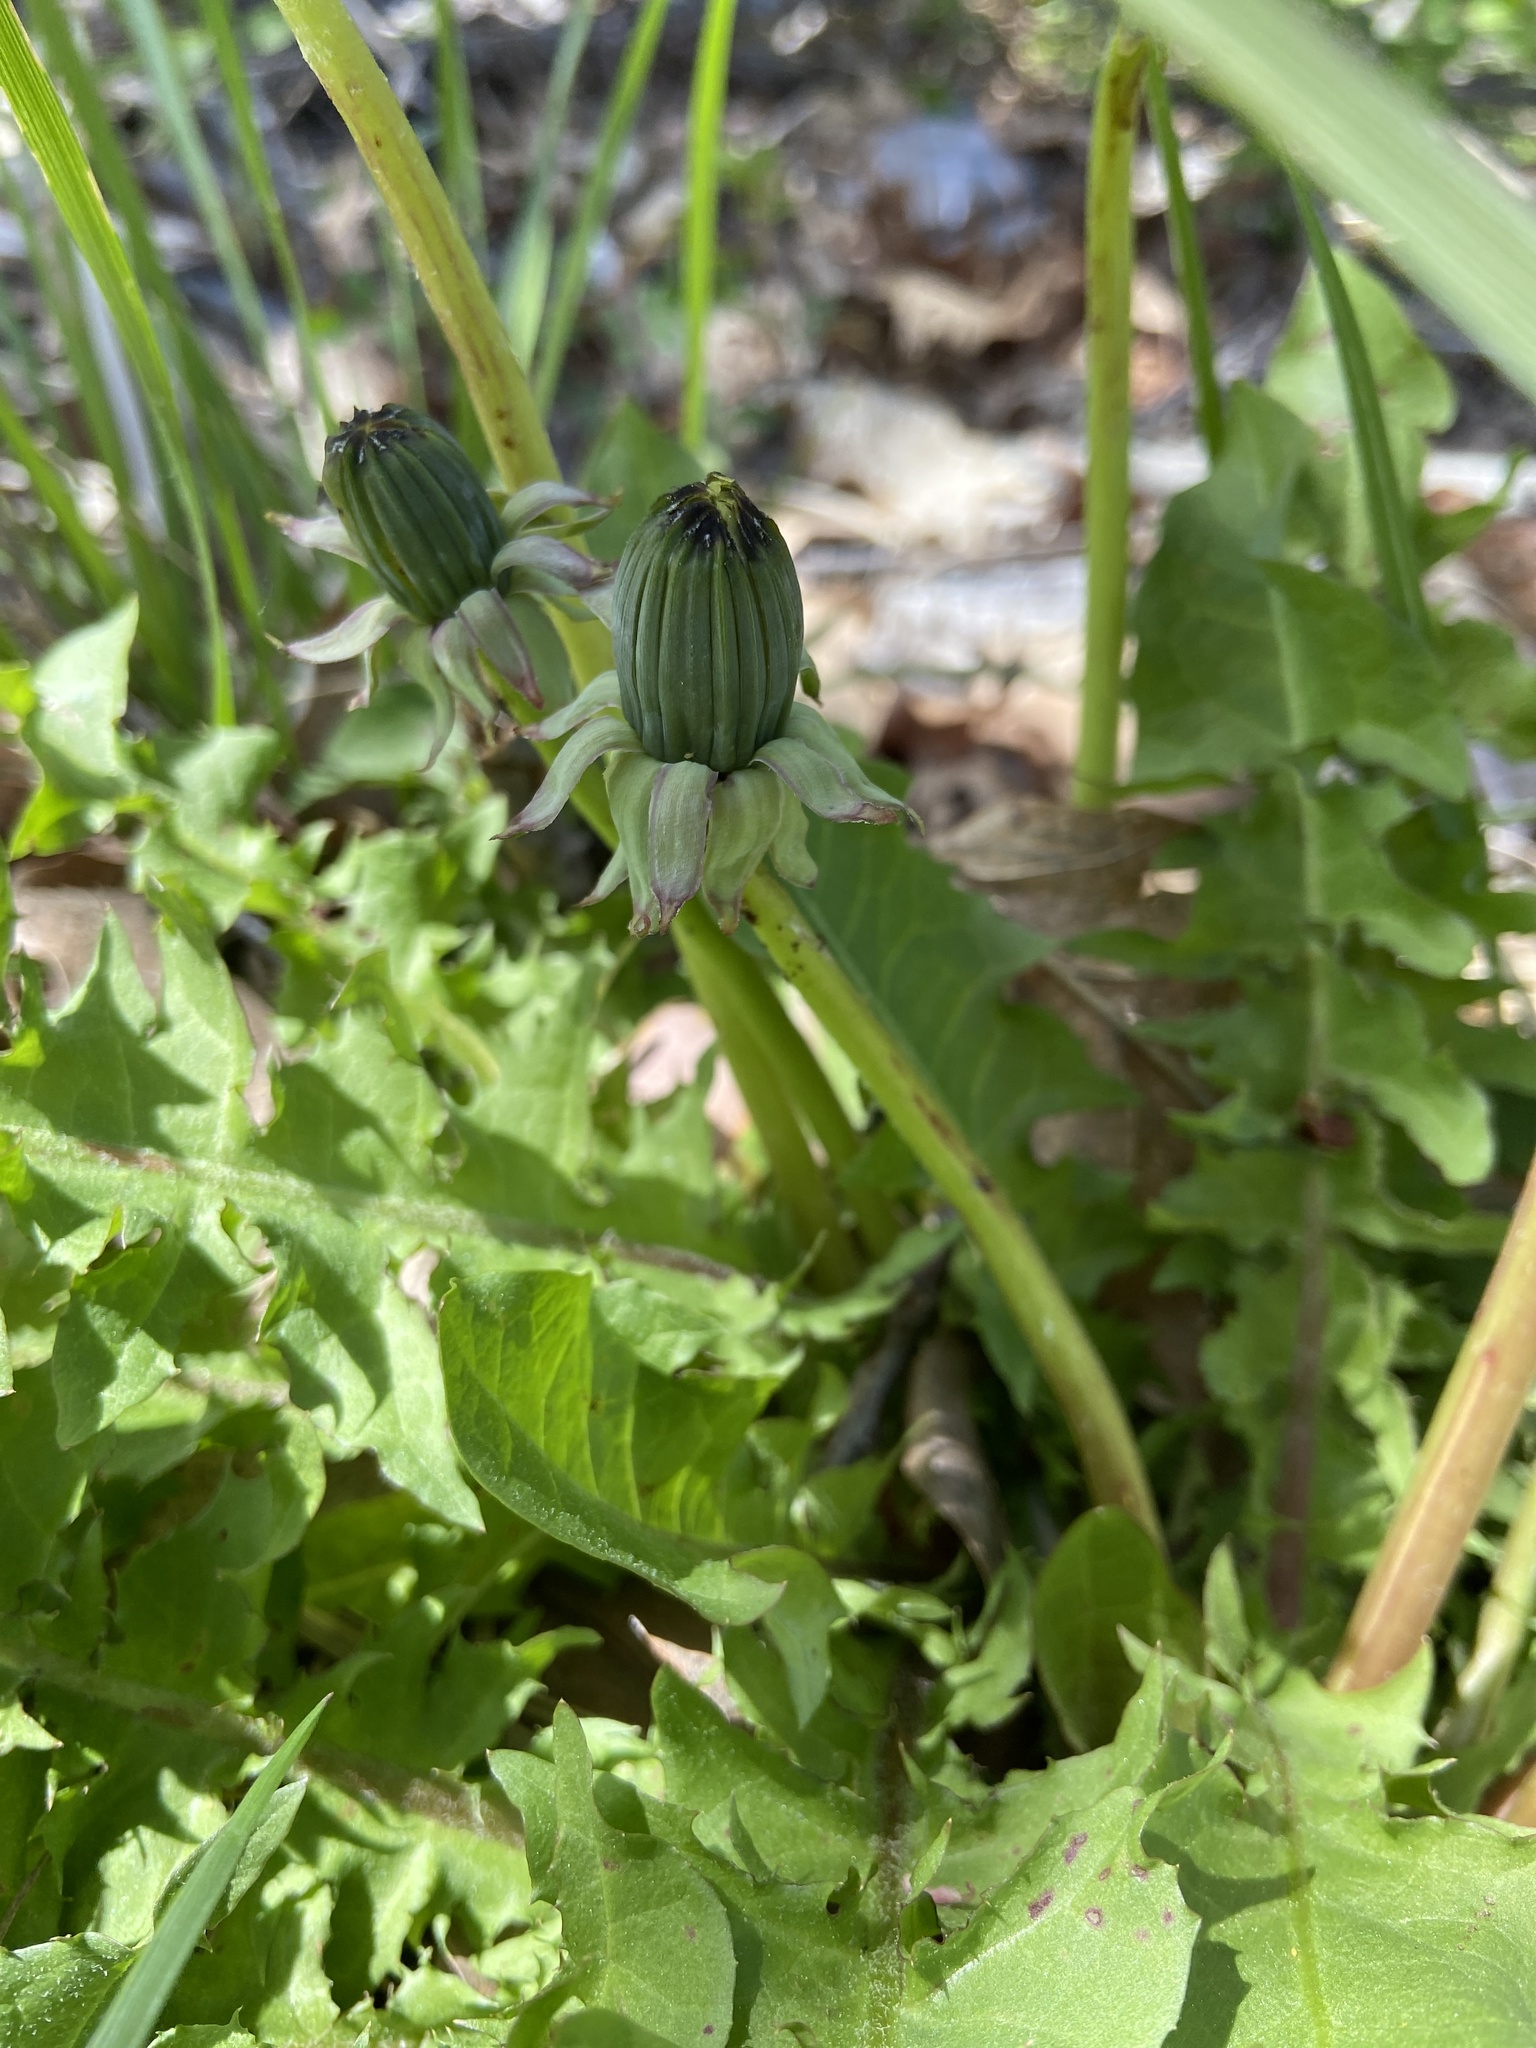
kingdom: Plantae
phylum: Tracheophyta
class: Magnoliopsida
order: Asterales
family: Asteraceae
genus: Taraxacum
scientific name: Taraxacum officinale
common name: Common dandelion
